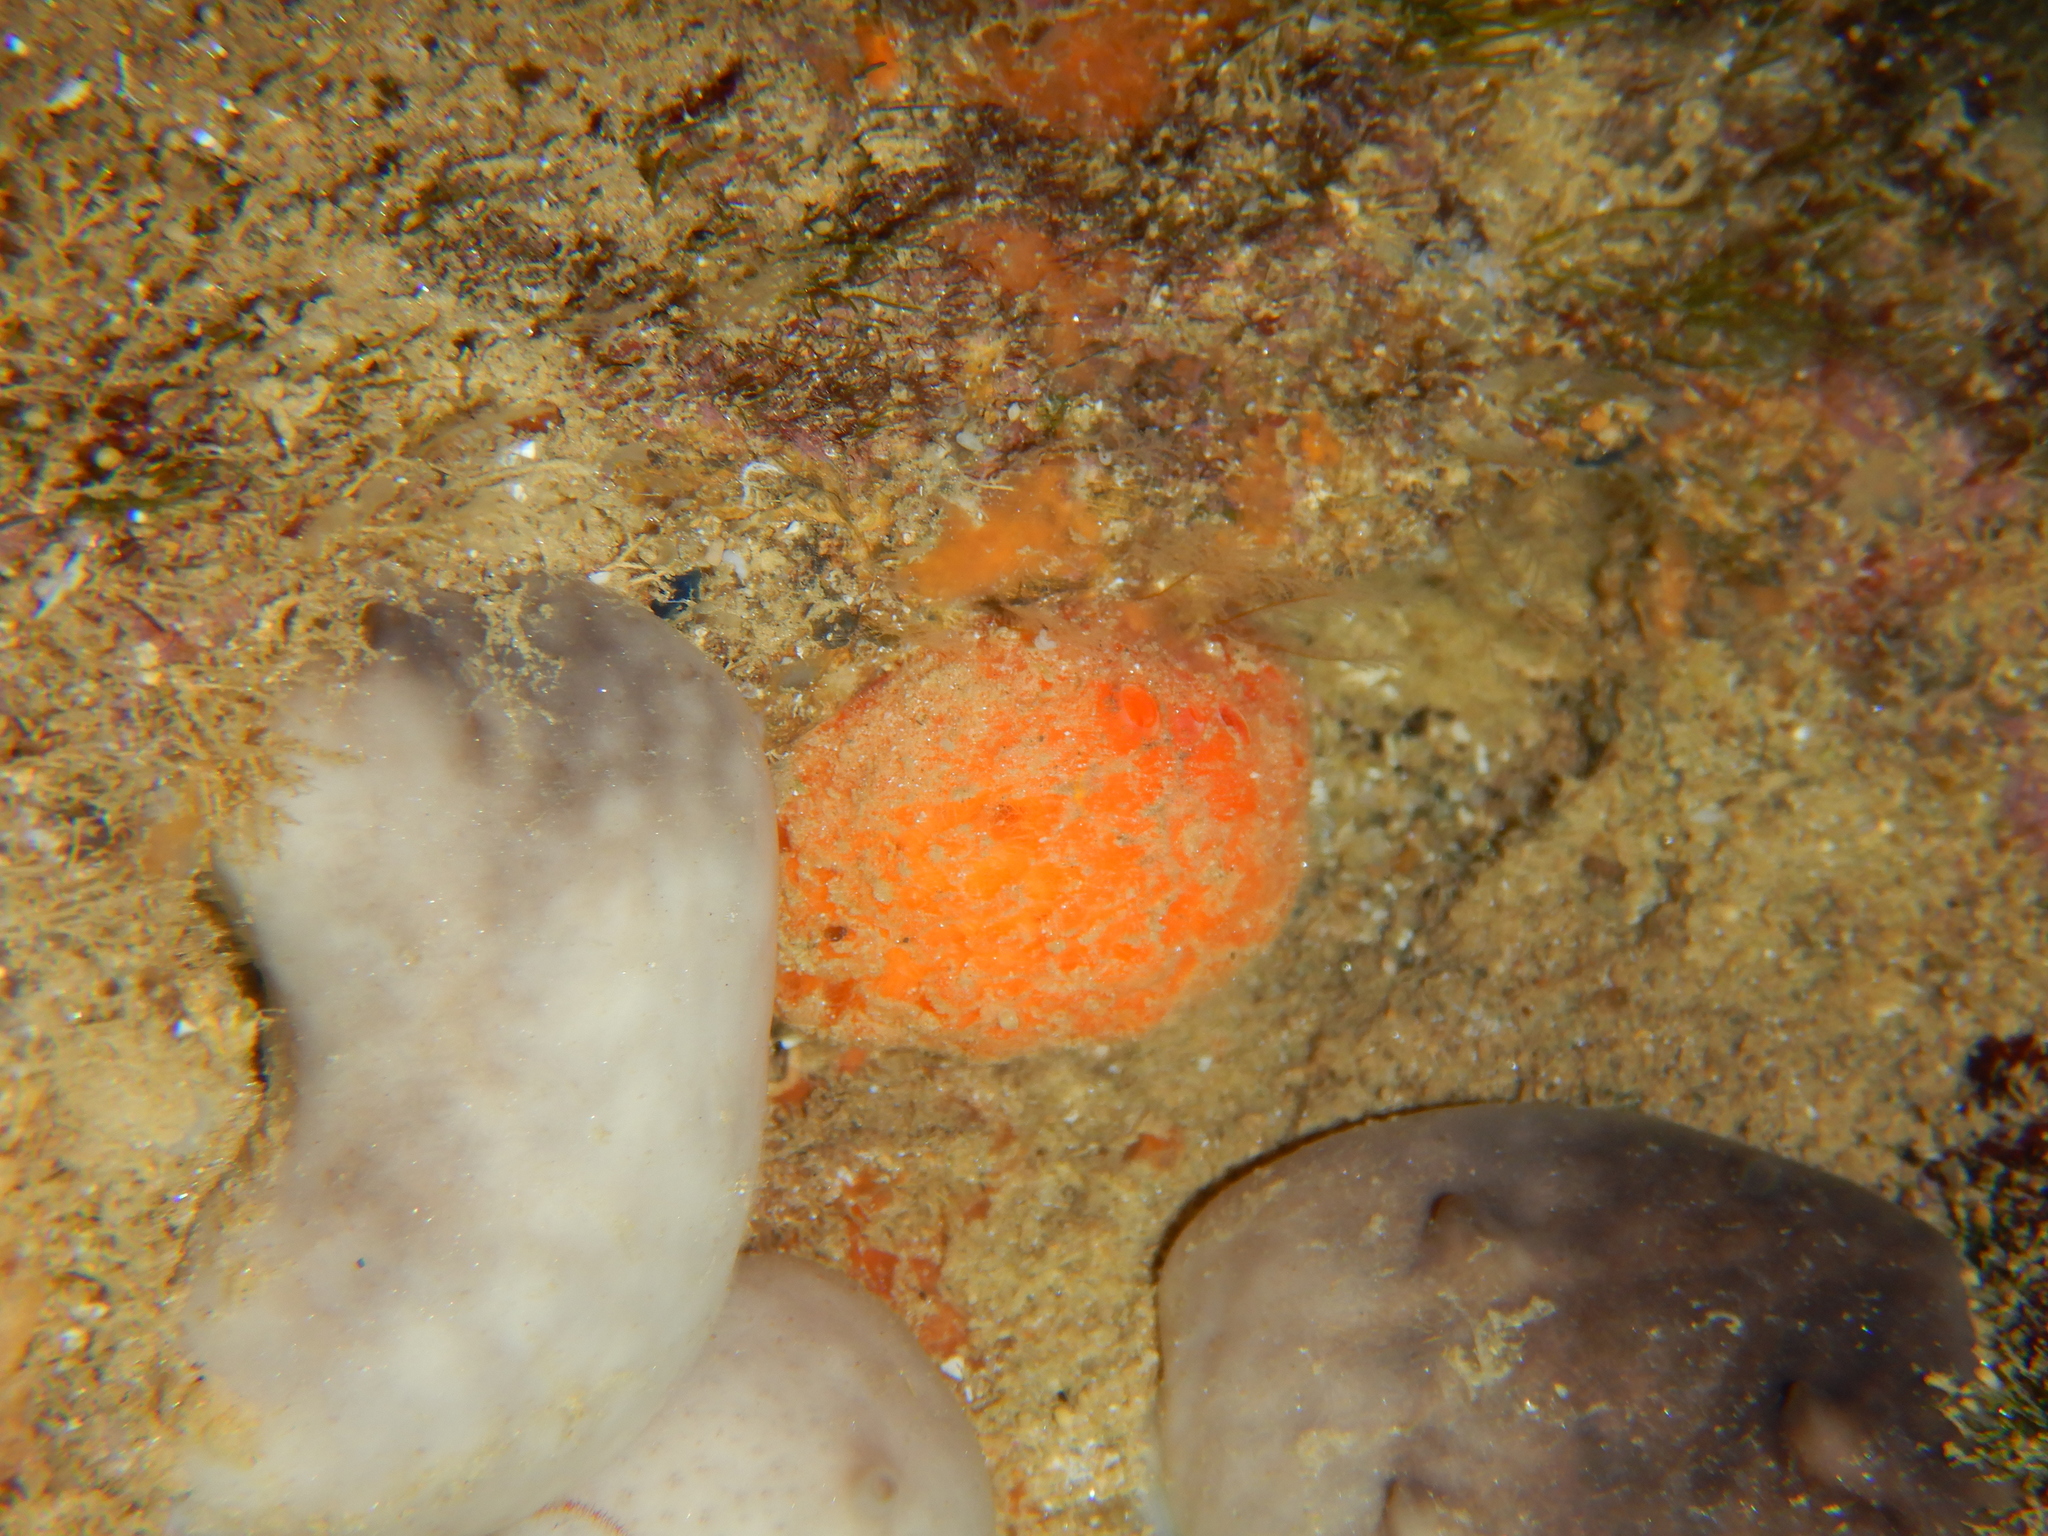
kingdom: Animalia
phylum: Porifera
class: Demospongiae
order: Tethyida
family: Tethyidae
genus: Tethya
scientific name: Tethya aurantium
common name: Golf ball sponge
